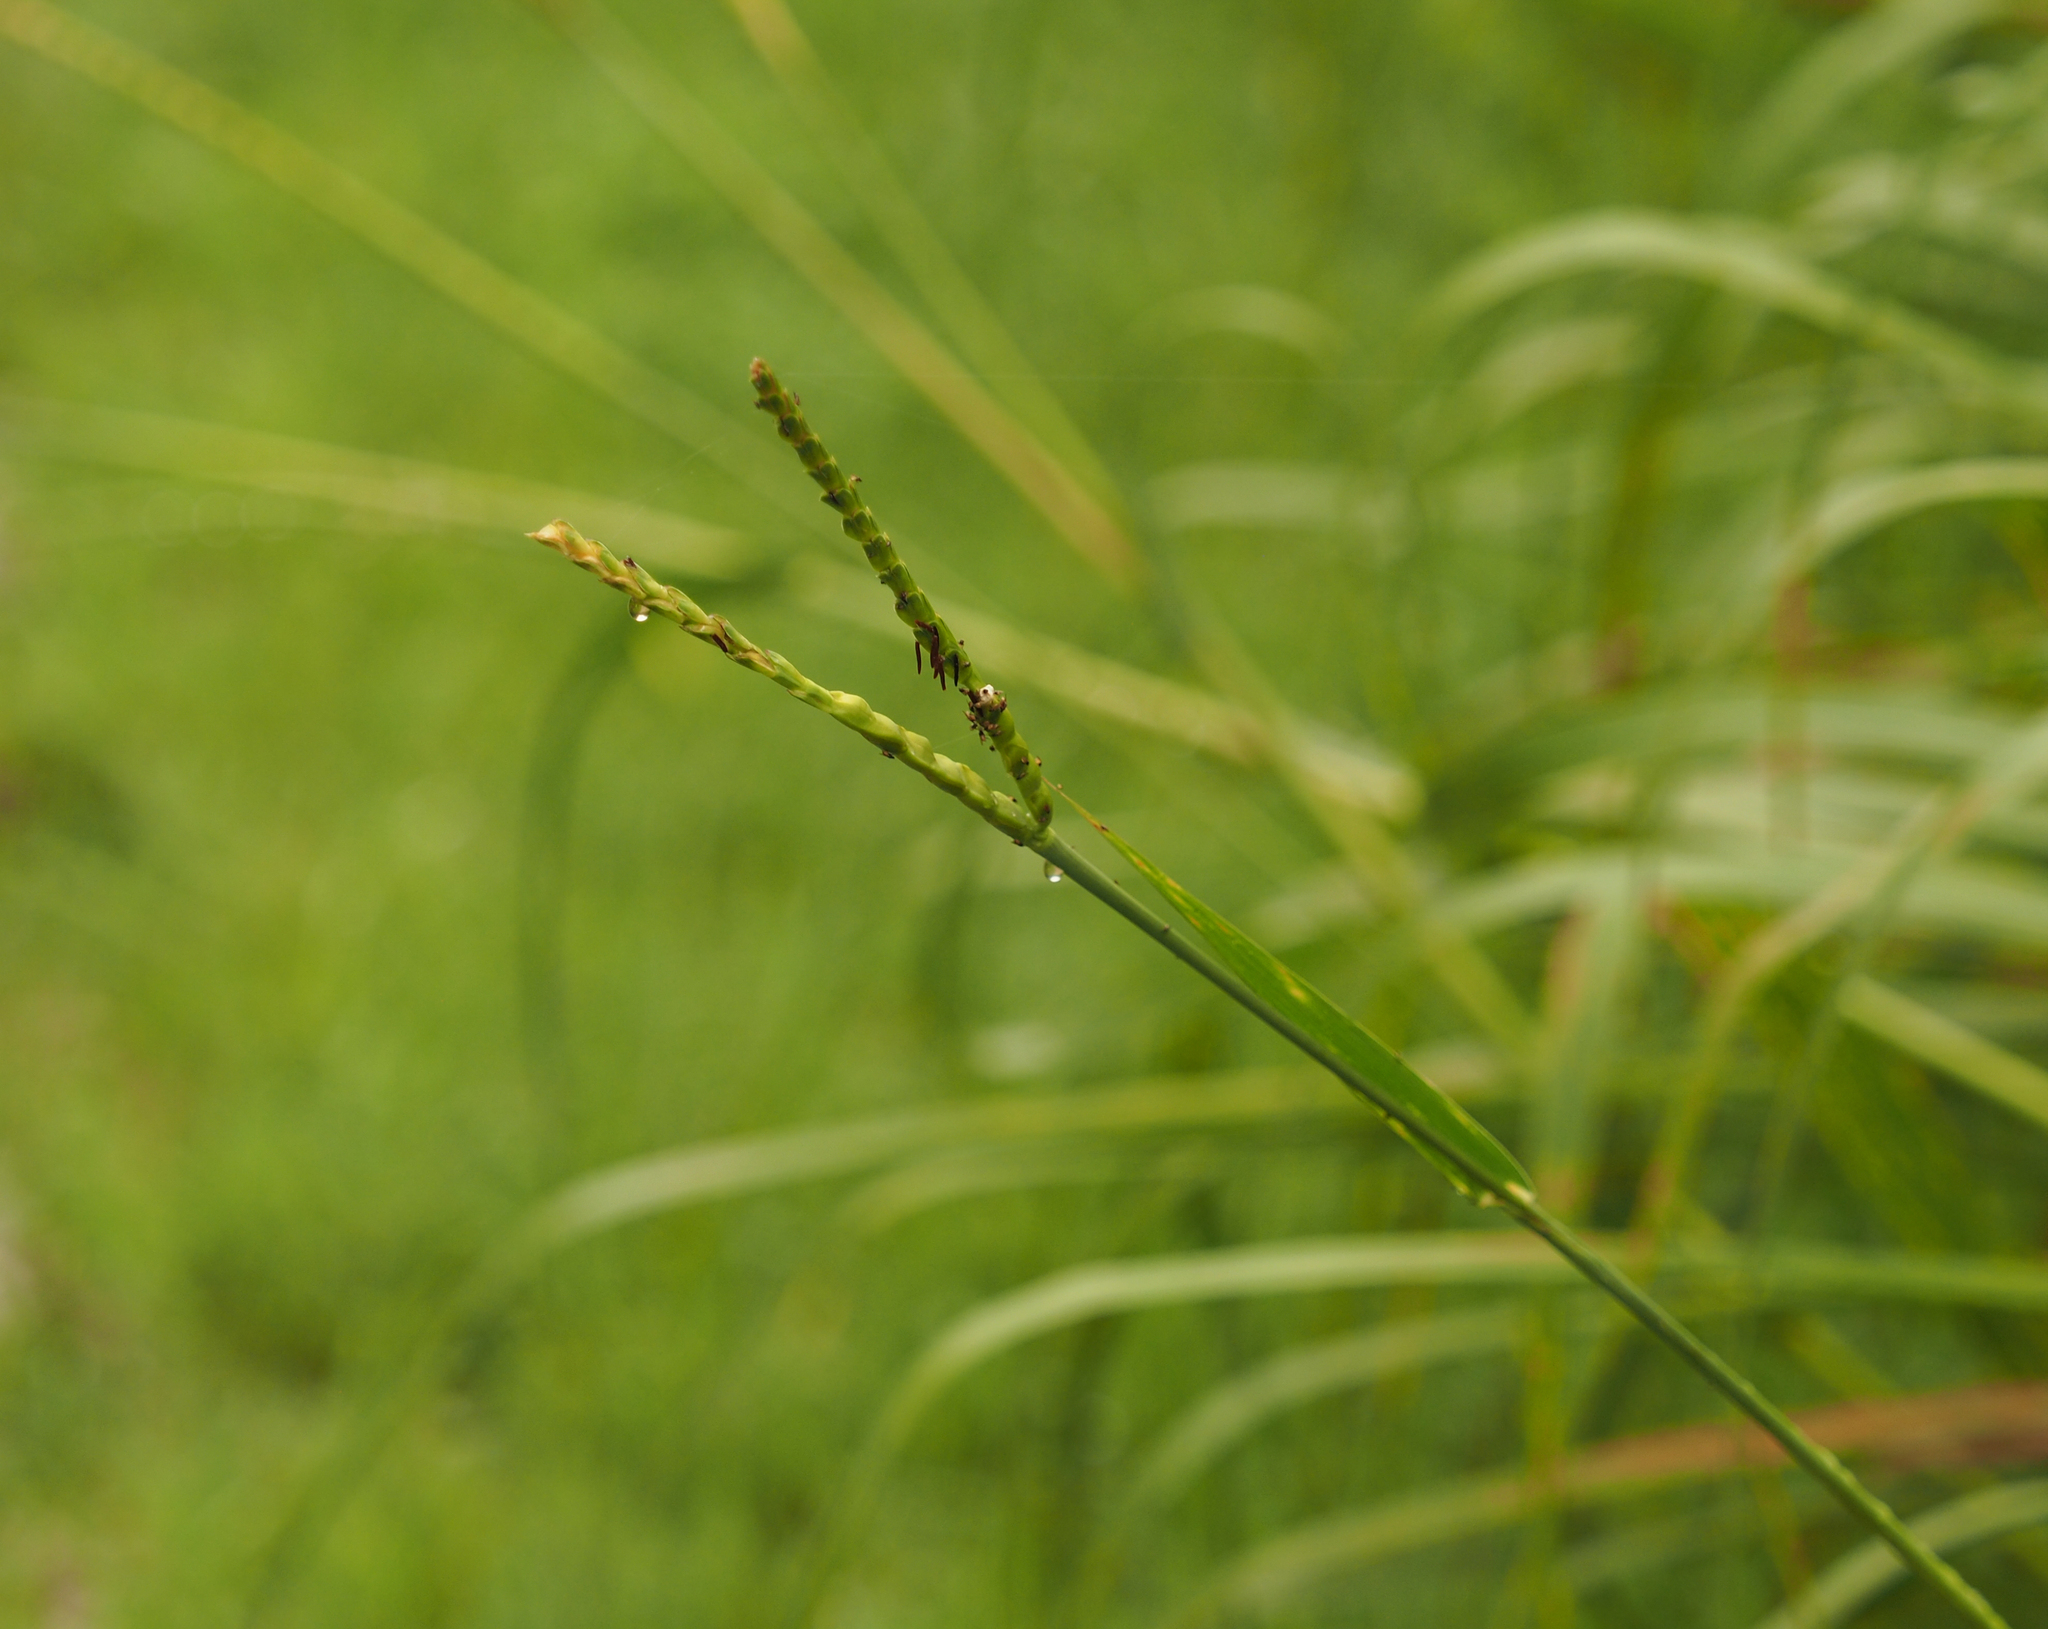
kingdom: Plantae
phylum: Tracheophyta
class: Liliopsida
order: Poales
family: Poaceae
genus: Tripsacum
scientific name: Tripsacum dactyloides
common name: Buffalo-grass
